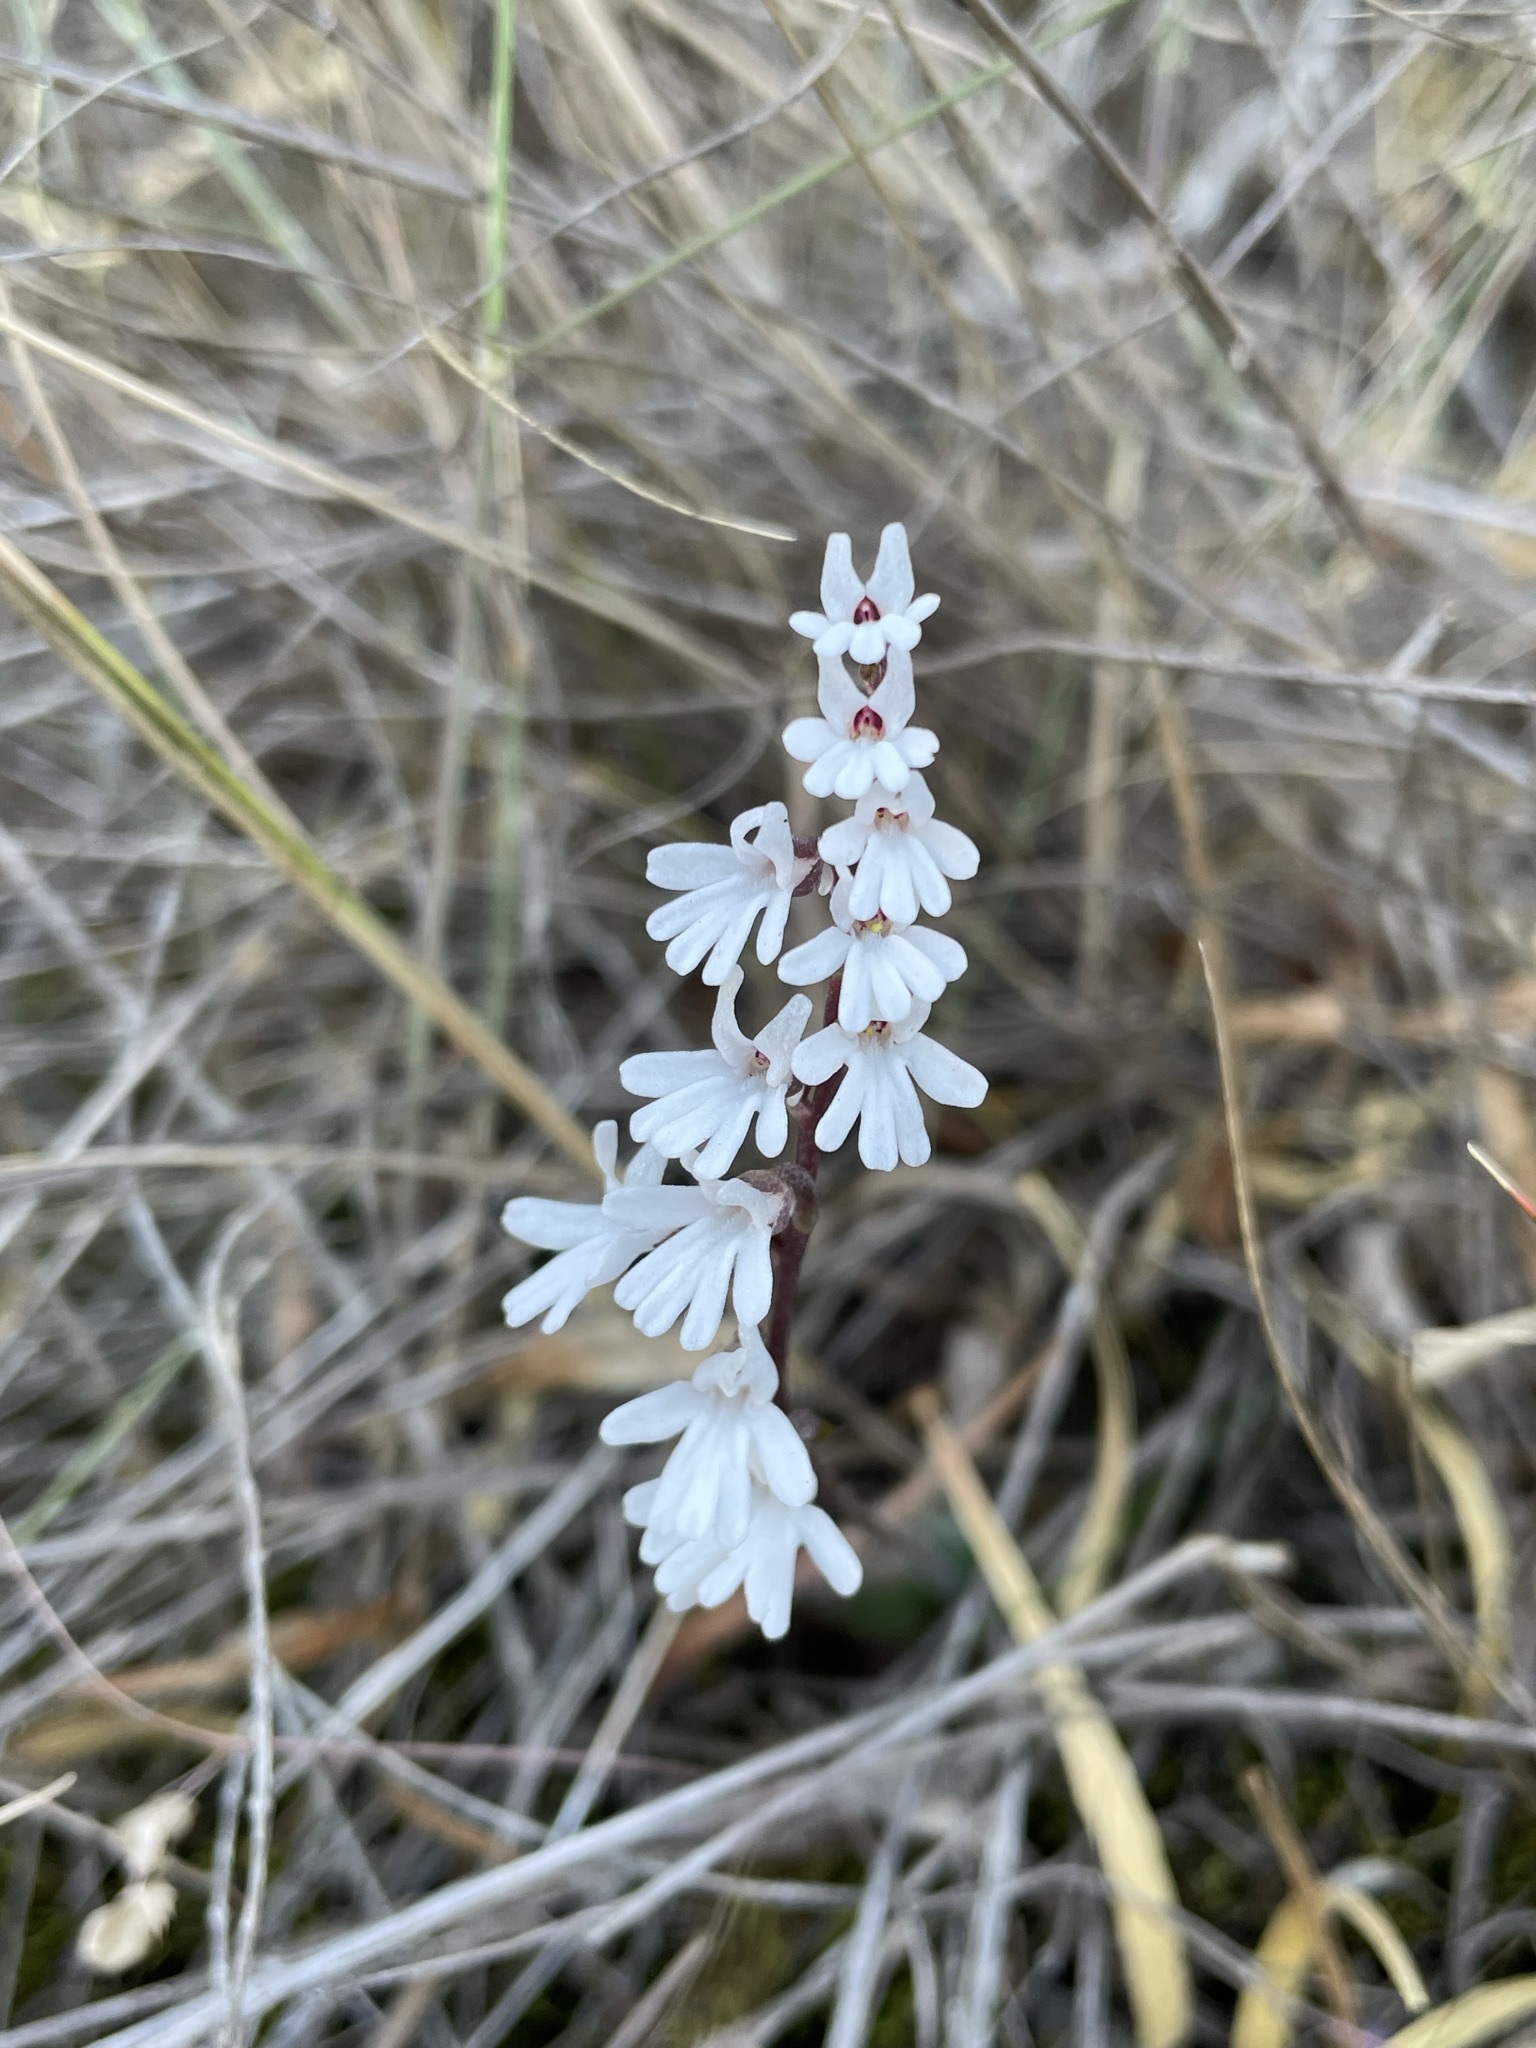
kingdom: Plantae
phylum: Tracheophyta
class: Liliopsida
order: Asparagales
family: Orchidaceae
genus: Holothrix
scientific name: Holothrix parviflora
